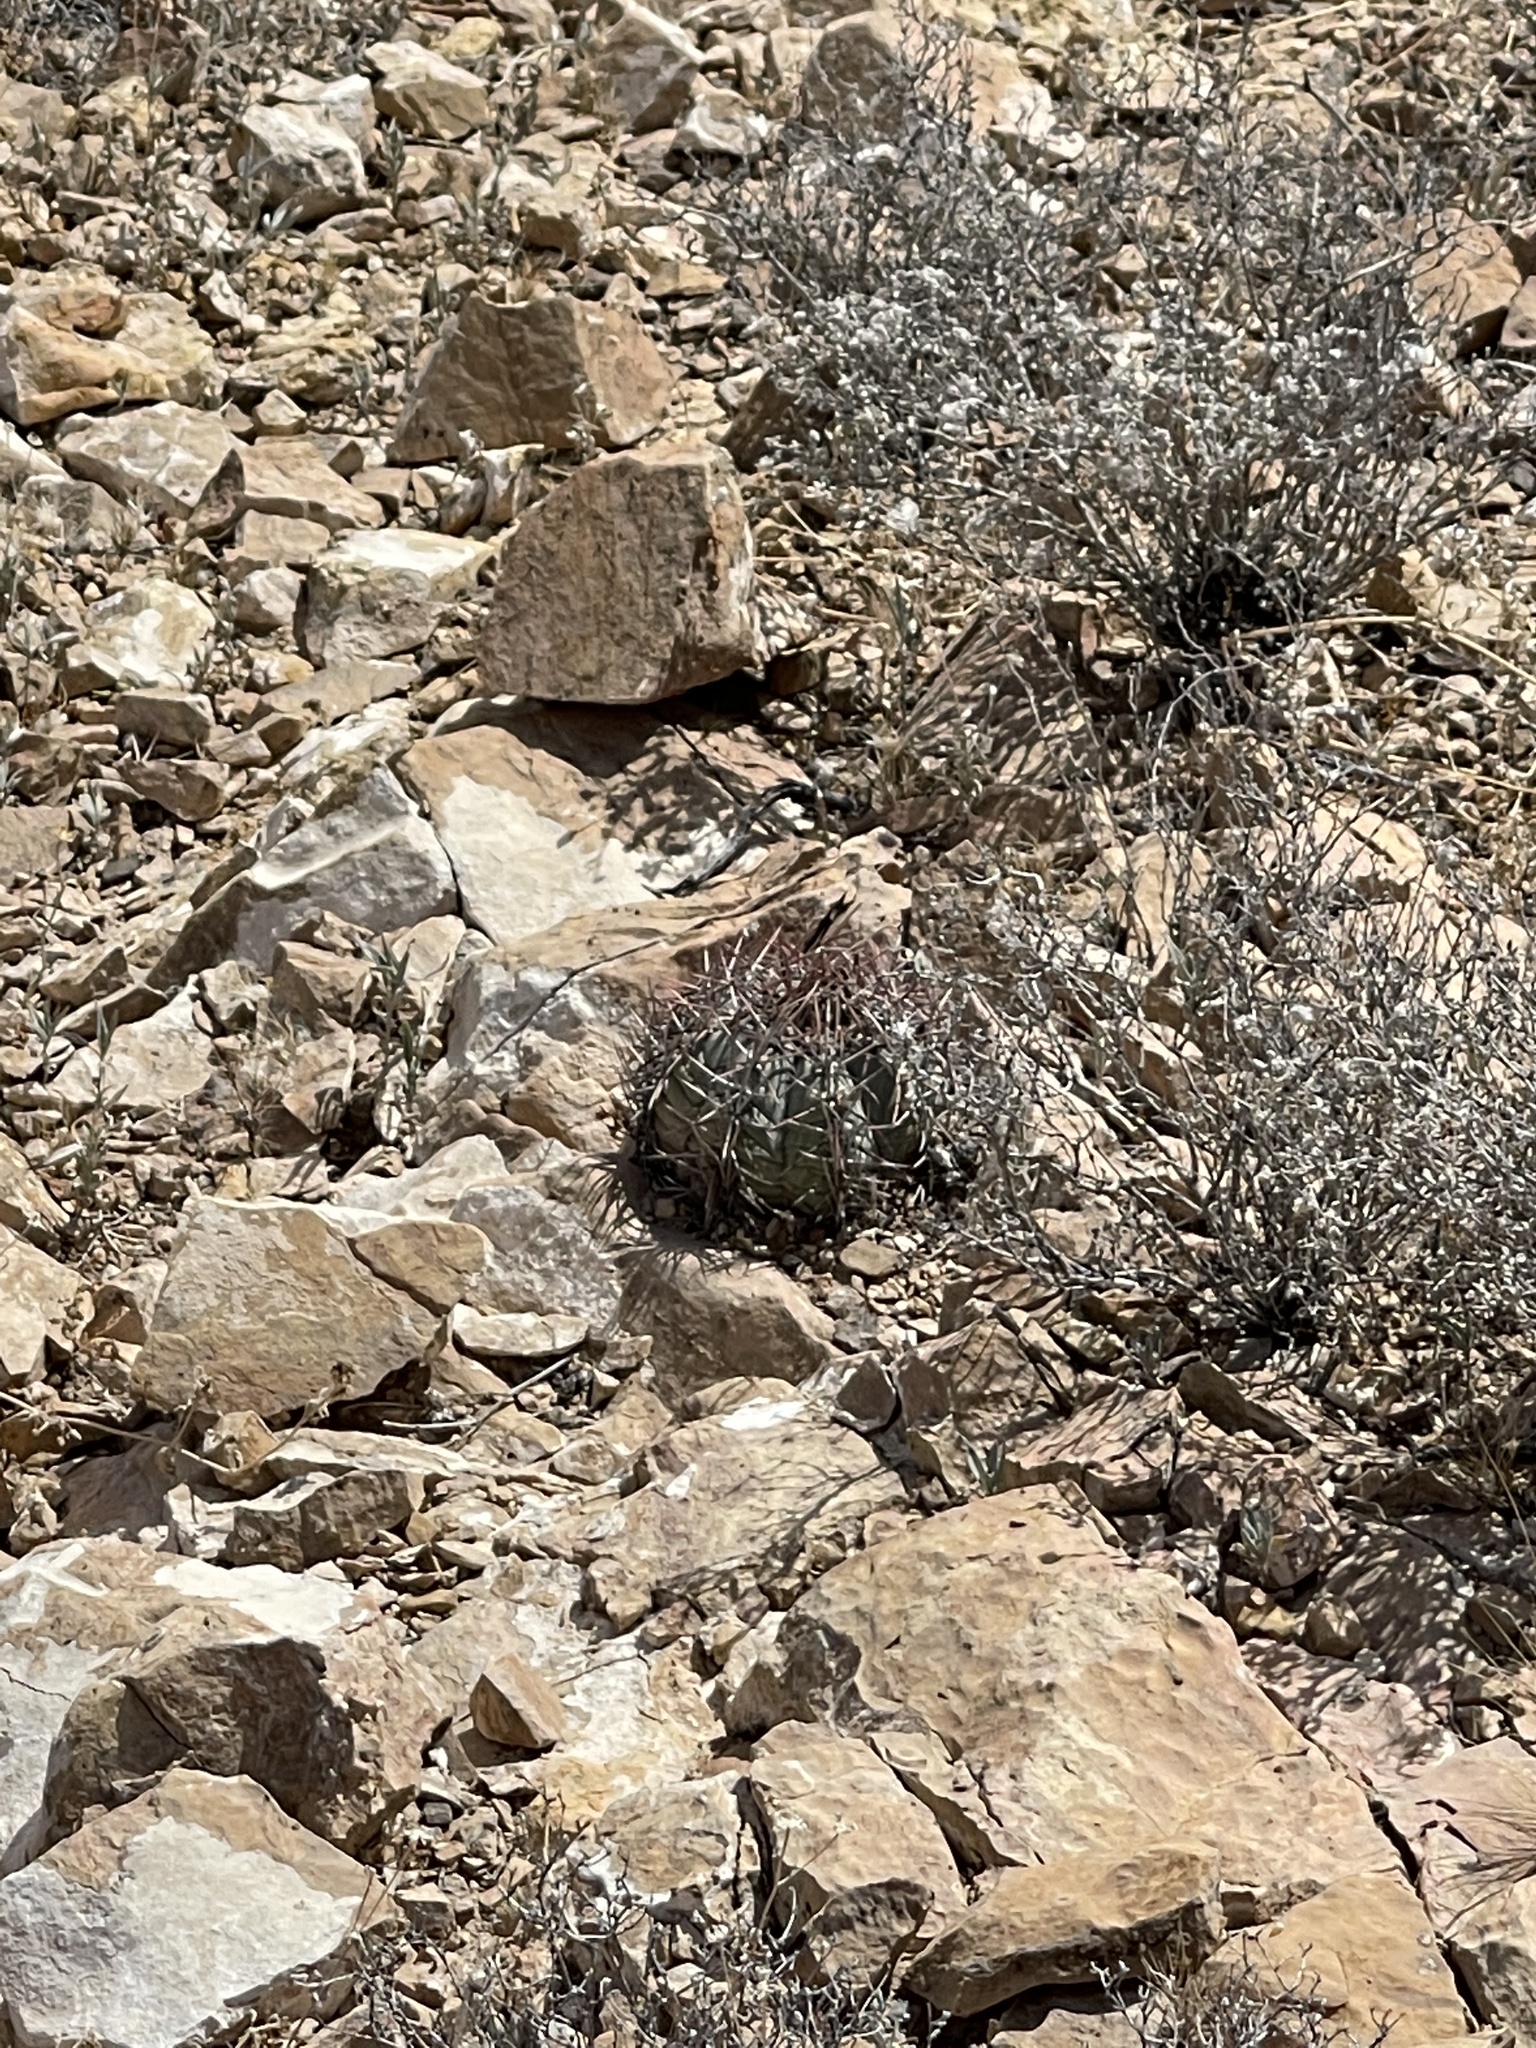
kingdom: Plantae
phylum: Tracheophyta
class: Magnoliopsida
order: Caryophyllales
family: Cactaceae
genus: Echinocactus
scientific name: Echinocactus horizonthalonius
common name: Devilshead
